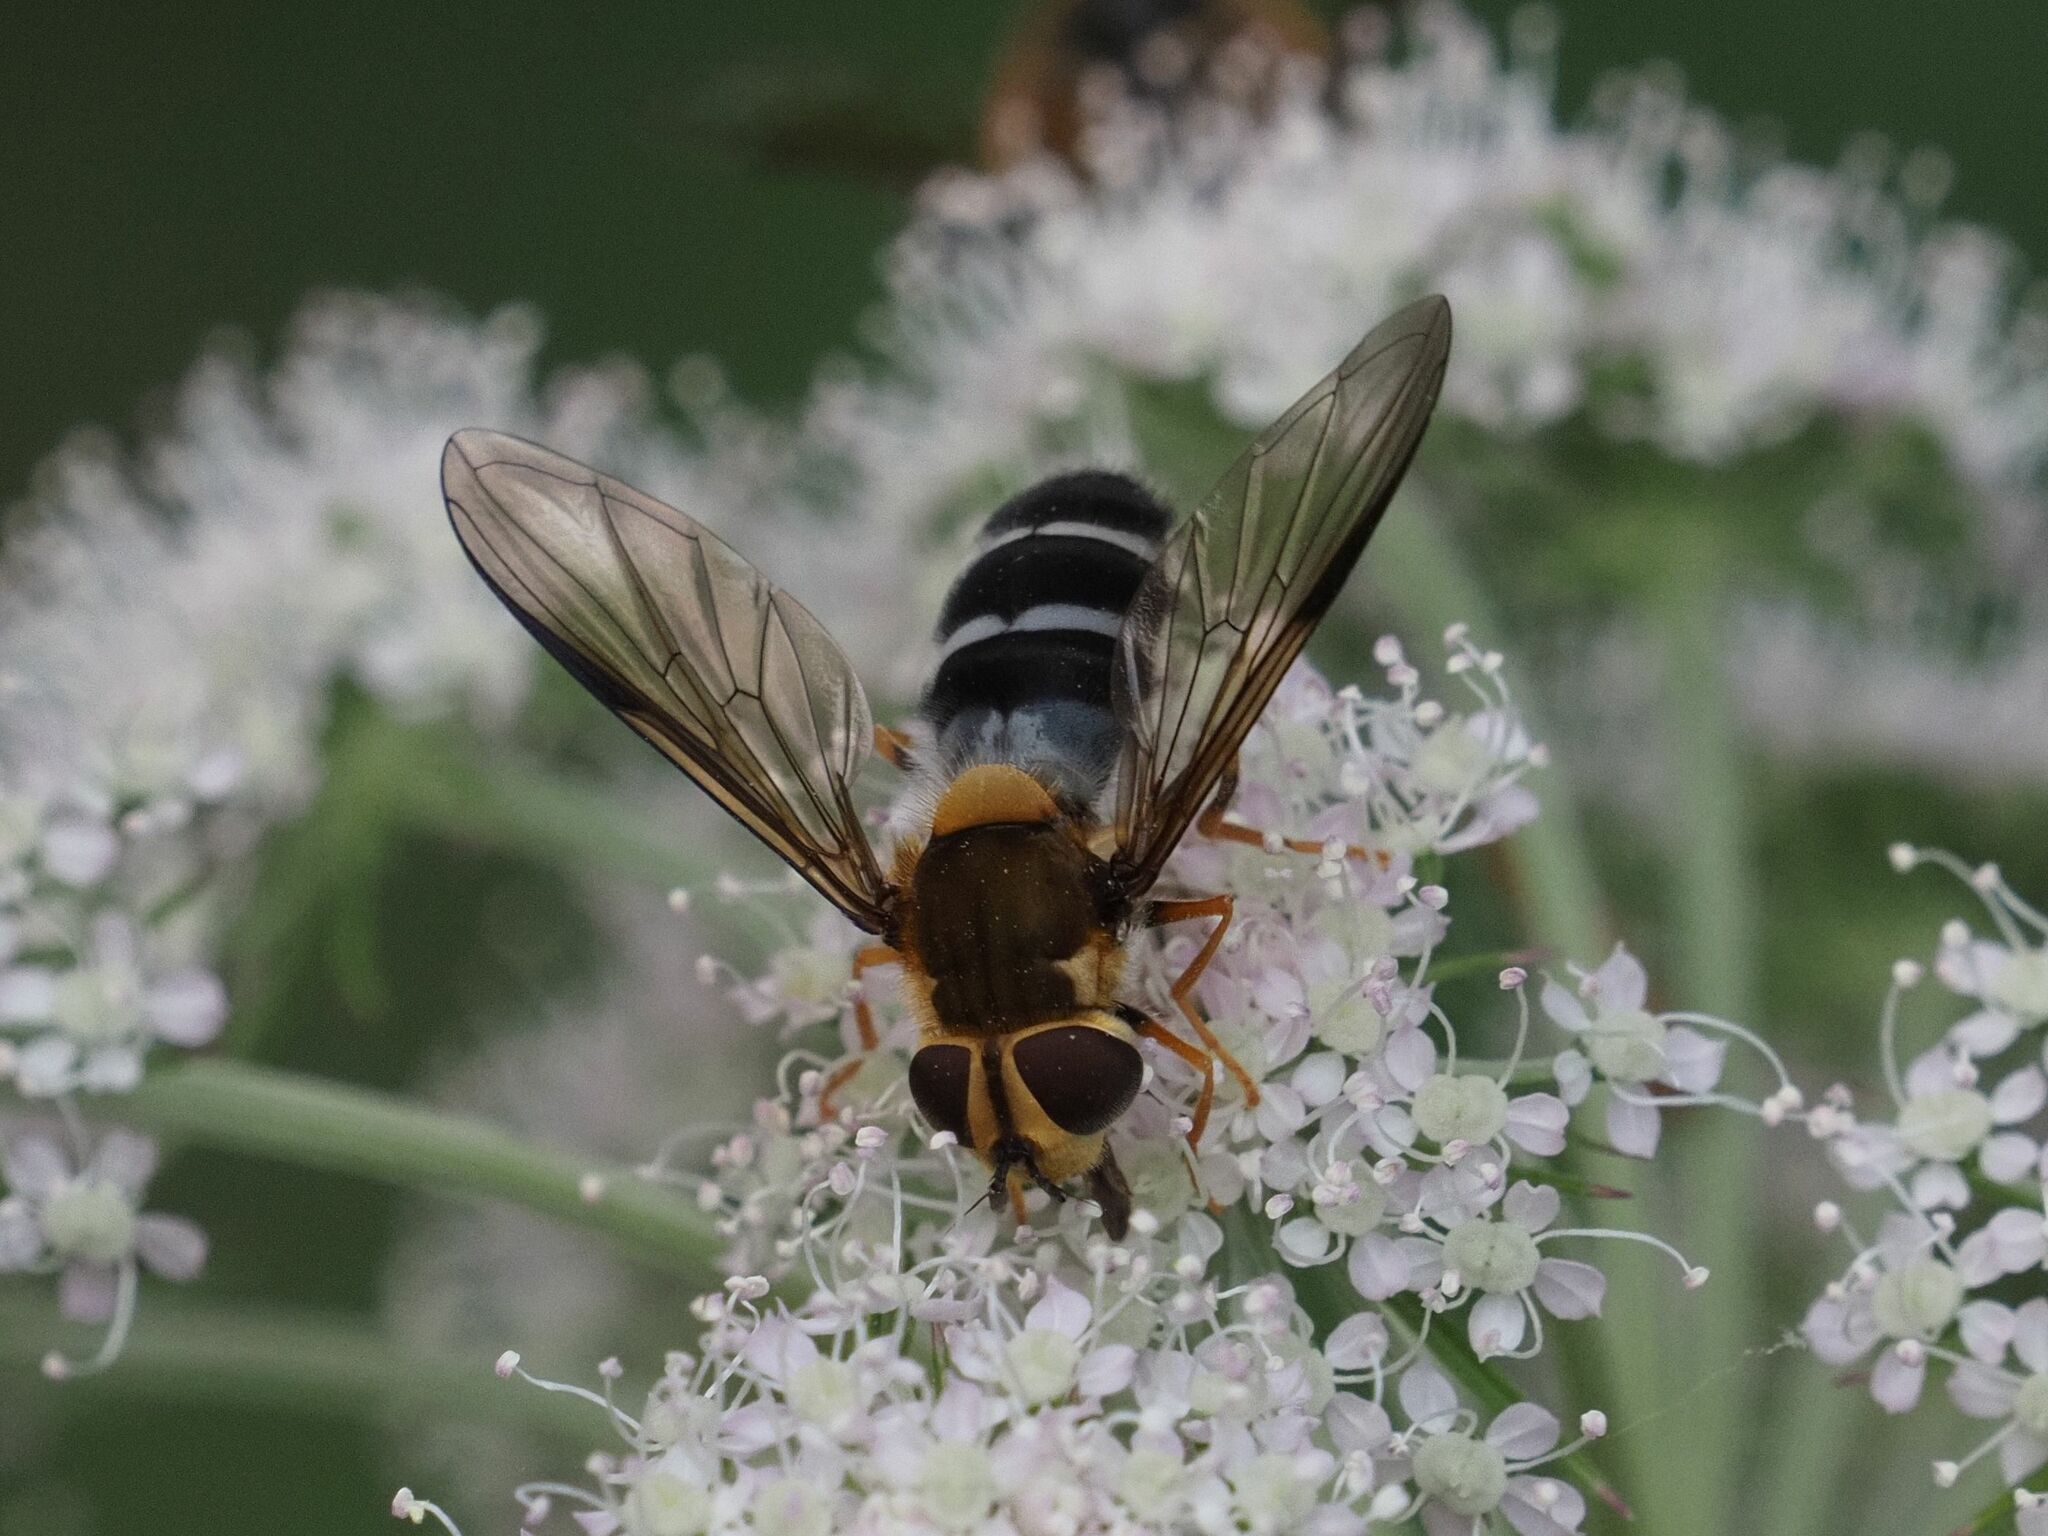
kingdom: Animalia
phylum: Arthropoda
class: Insecta
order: Diptera
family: Syrphidae
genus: Leucozona
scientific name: Leucozona glaucia
